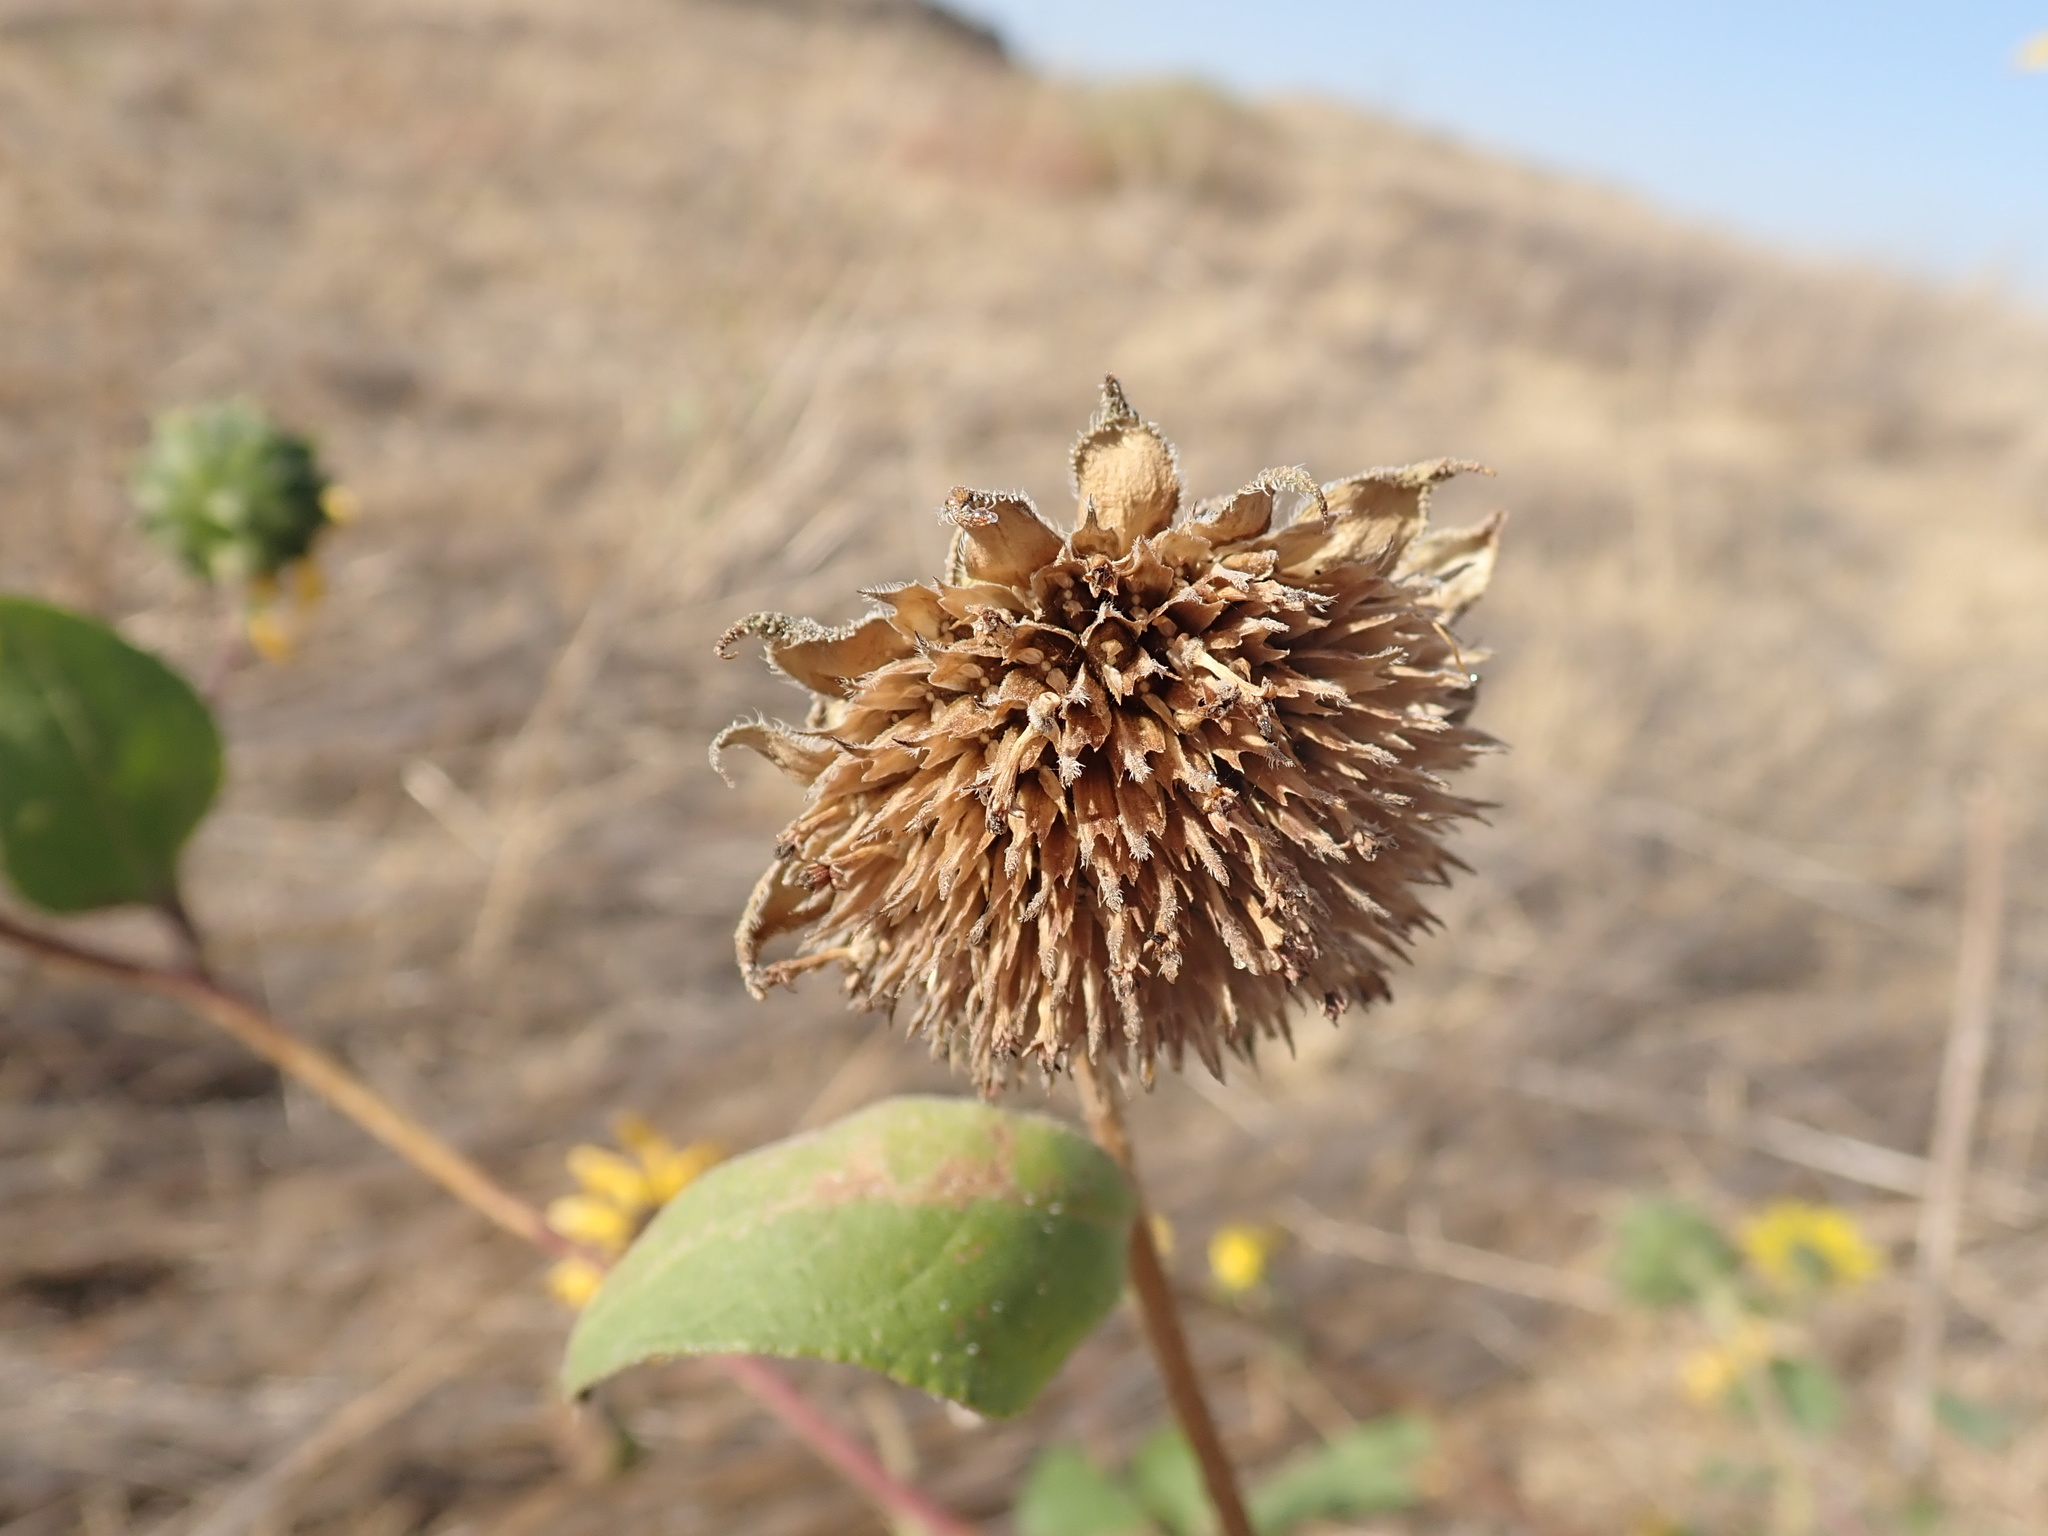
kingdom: Plantae
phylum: Tracheophyta
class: Magnoliopsida
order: Asterales
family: Asteraceae
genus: Helianthus
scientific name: Helianthus annuus
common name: Sunflower
